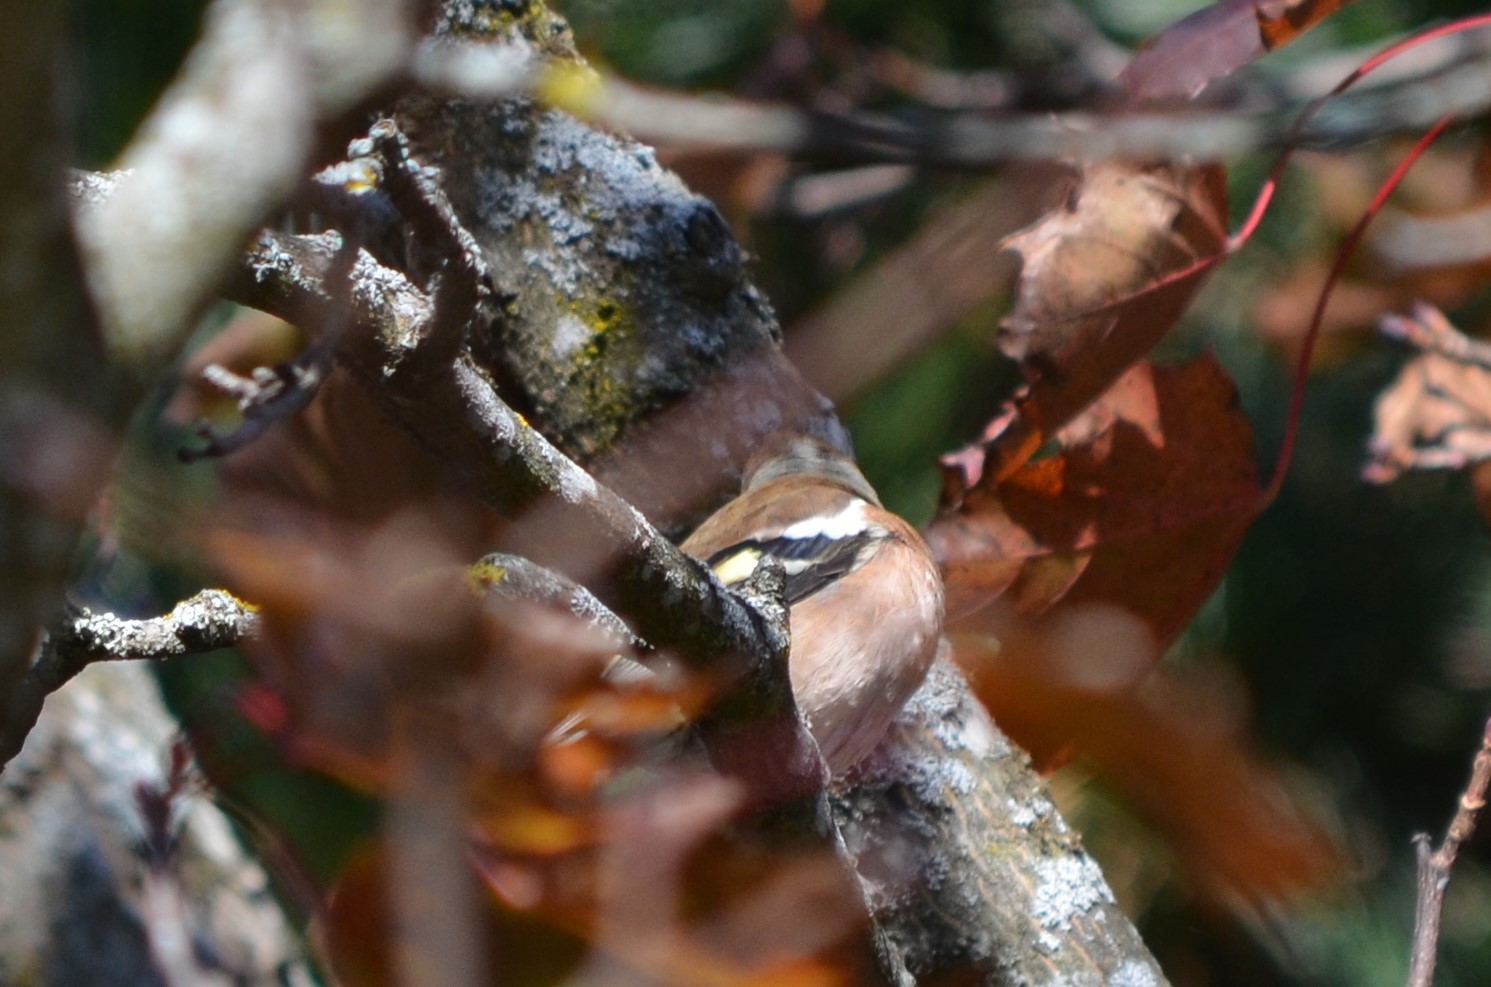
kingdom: Animalia
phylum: Chordata
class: Aves
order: Passeriformes
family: Fringillidae
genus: Fringilla
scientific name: Fringilla coelebs
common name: Common chaffinch
